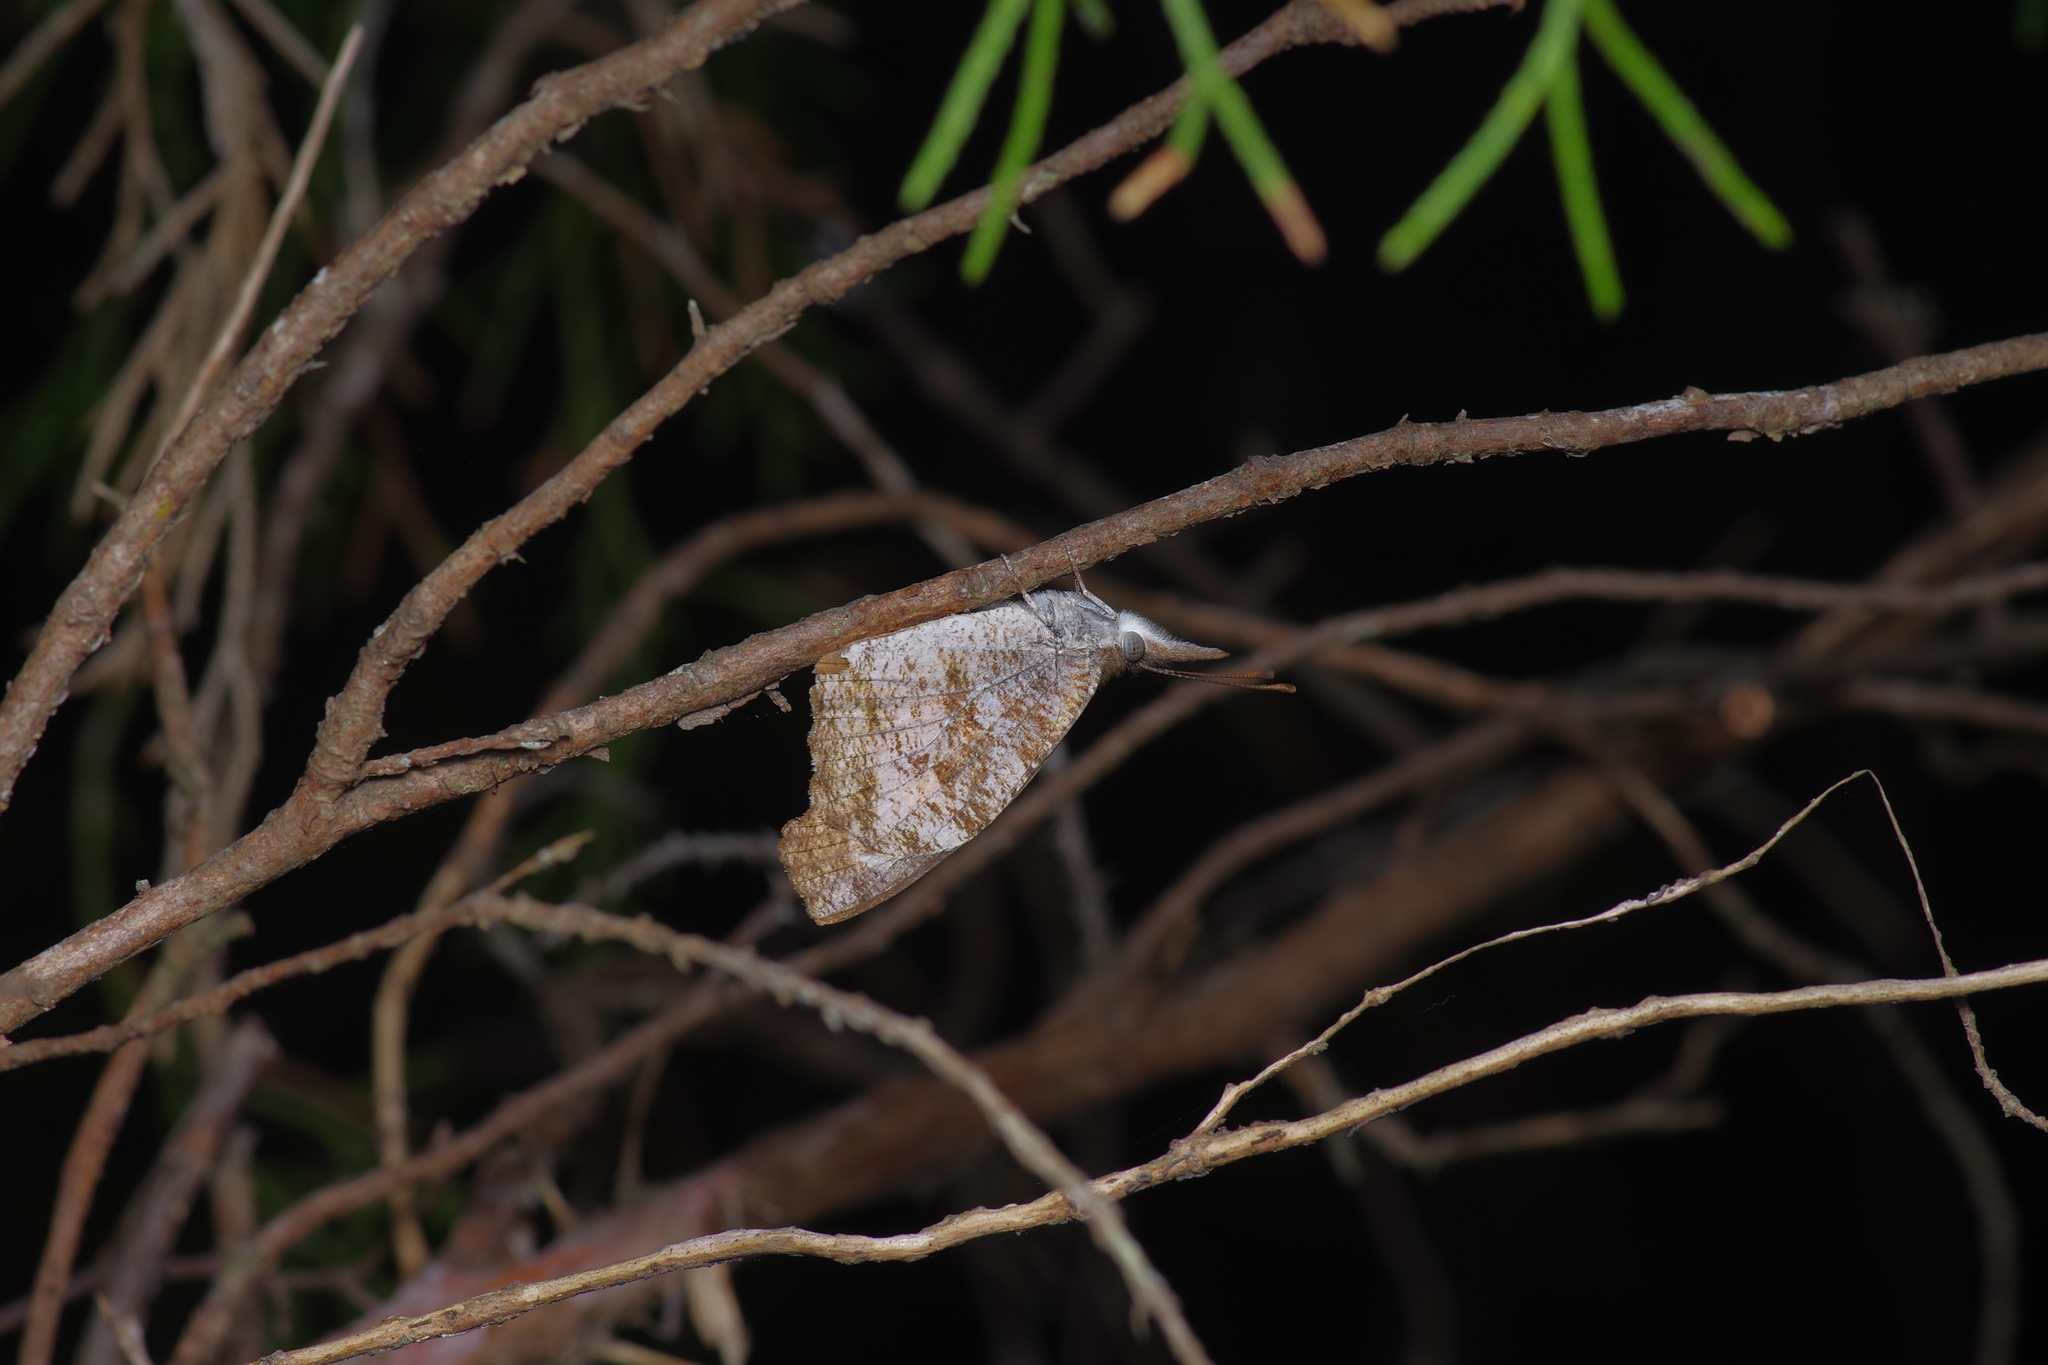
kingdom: Animalia
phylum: Arthropoda
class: Insecta
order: Lepidoptera
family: Nymphalidae
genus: Libytheana
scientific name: Libytheana carinenta
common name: American snout
